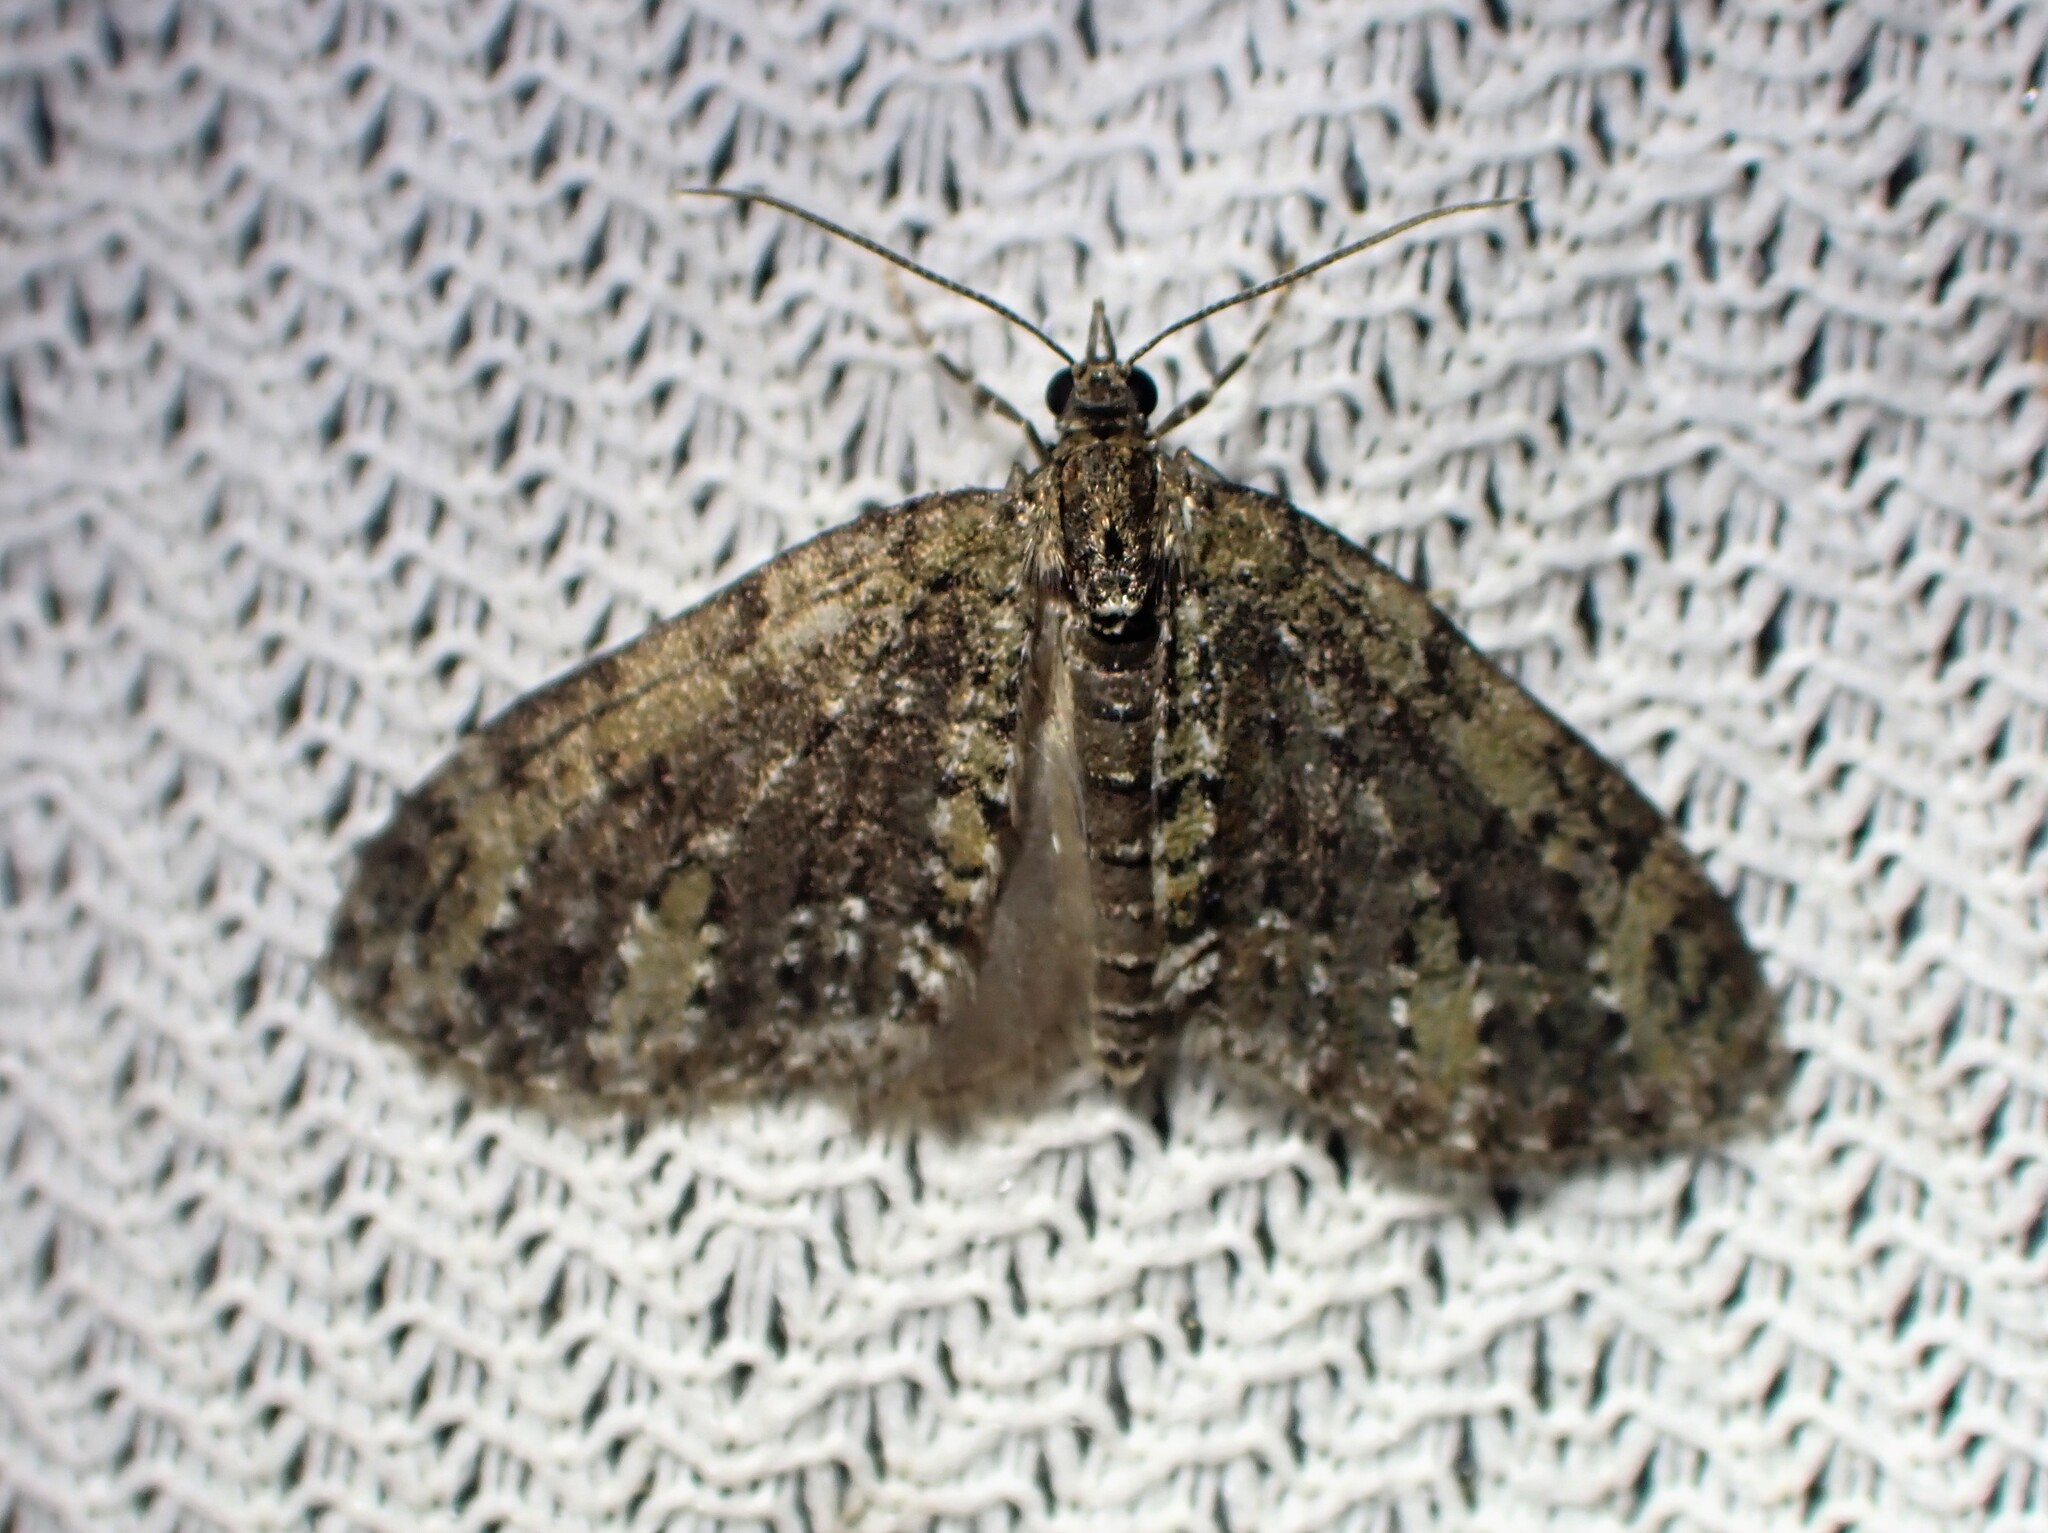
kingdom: Animalia
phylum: Arthropoda
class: Insecta
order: Lepidoptera
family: Geometridae
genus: Acasis
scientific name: Acasis viridata
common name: Olive-and-black carpet moth
